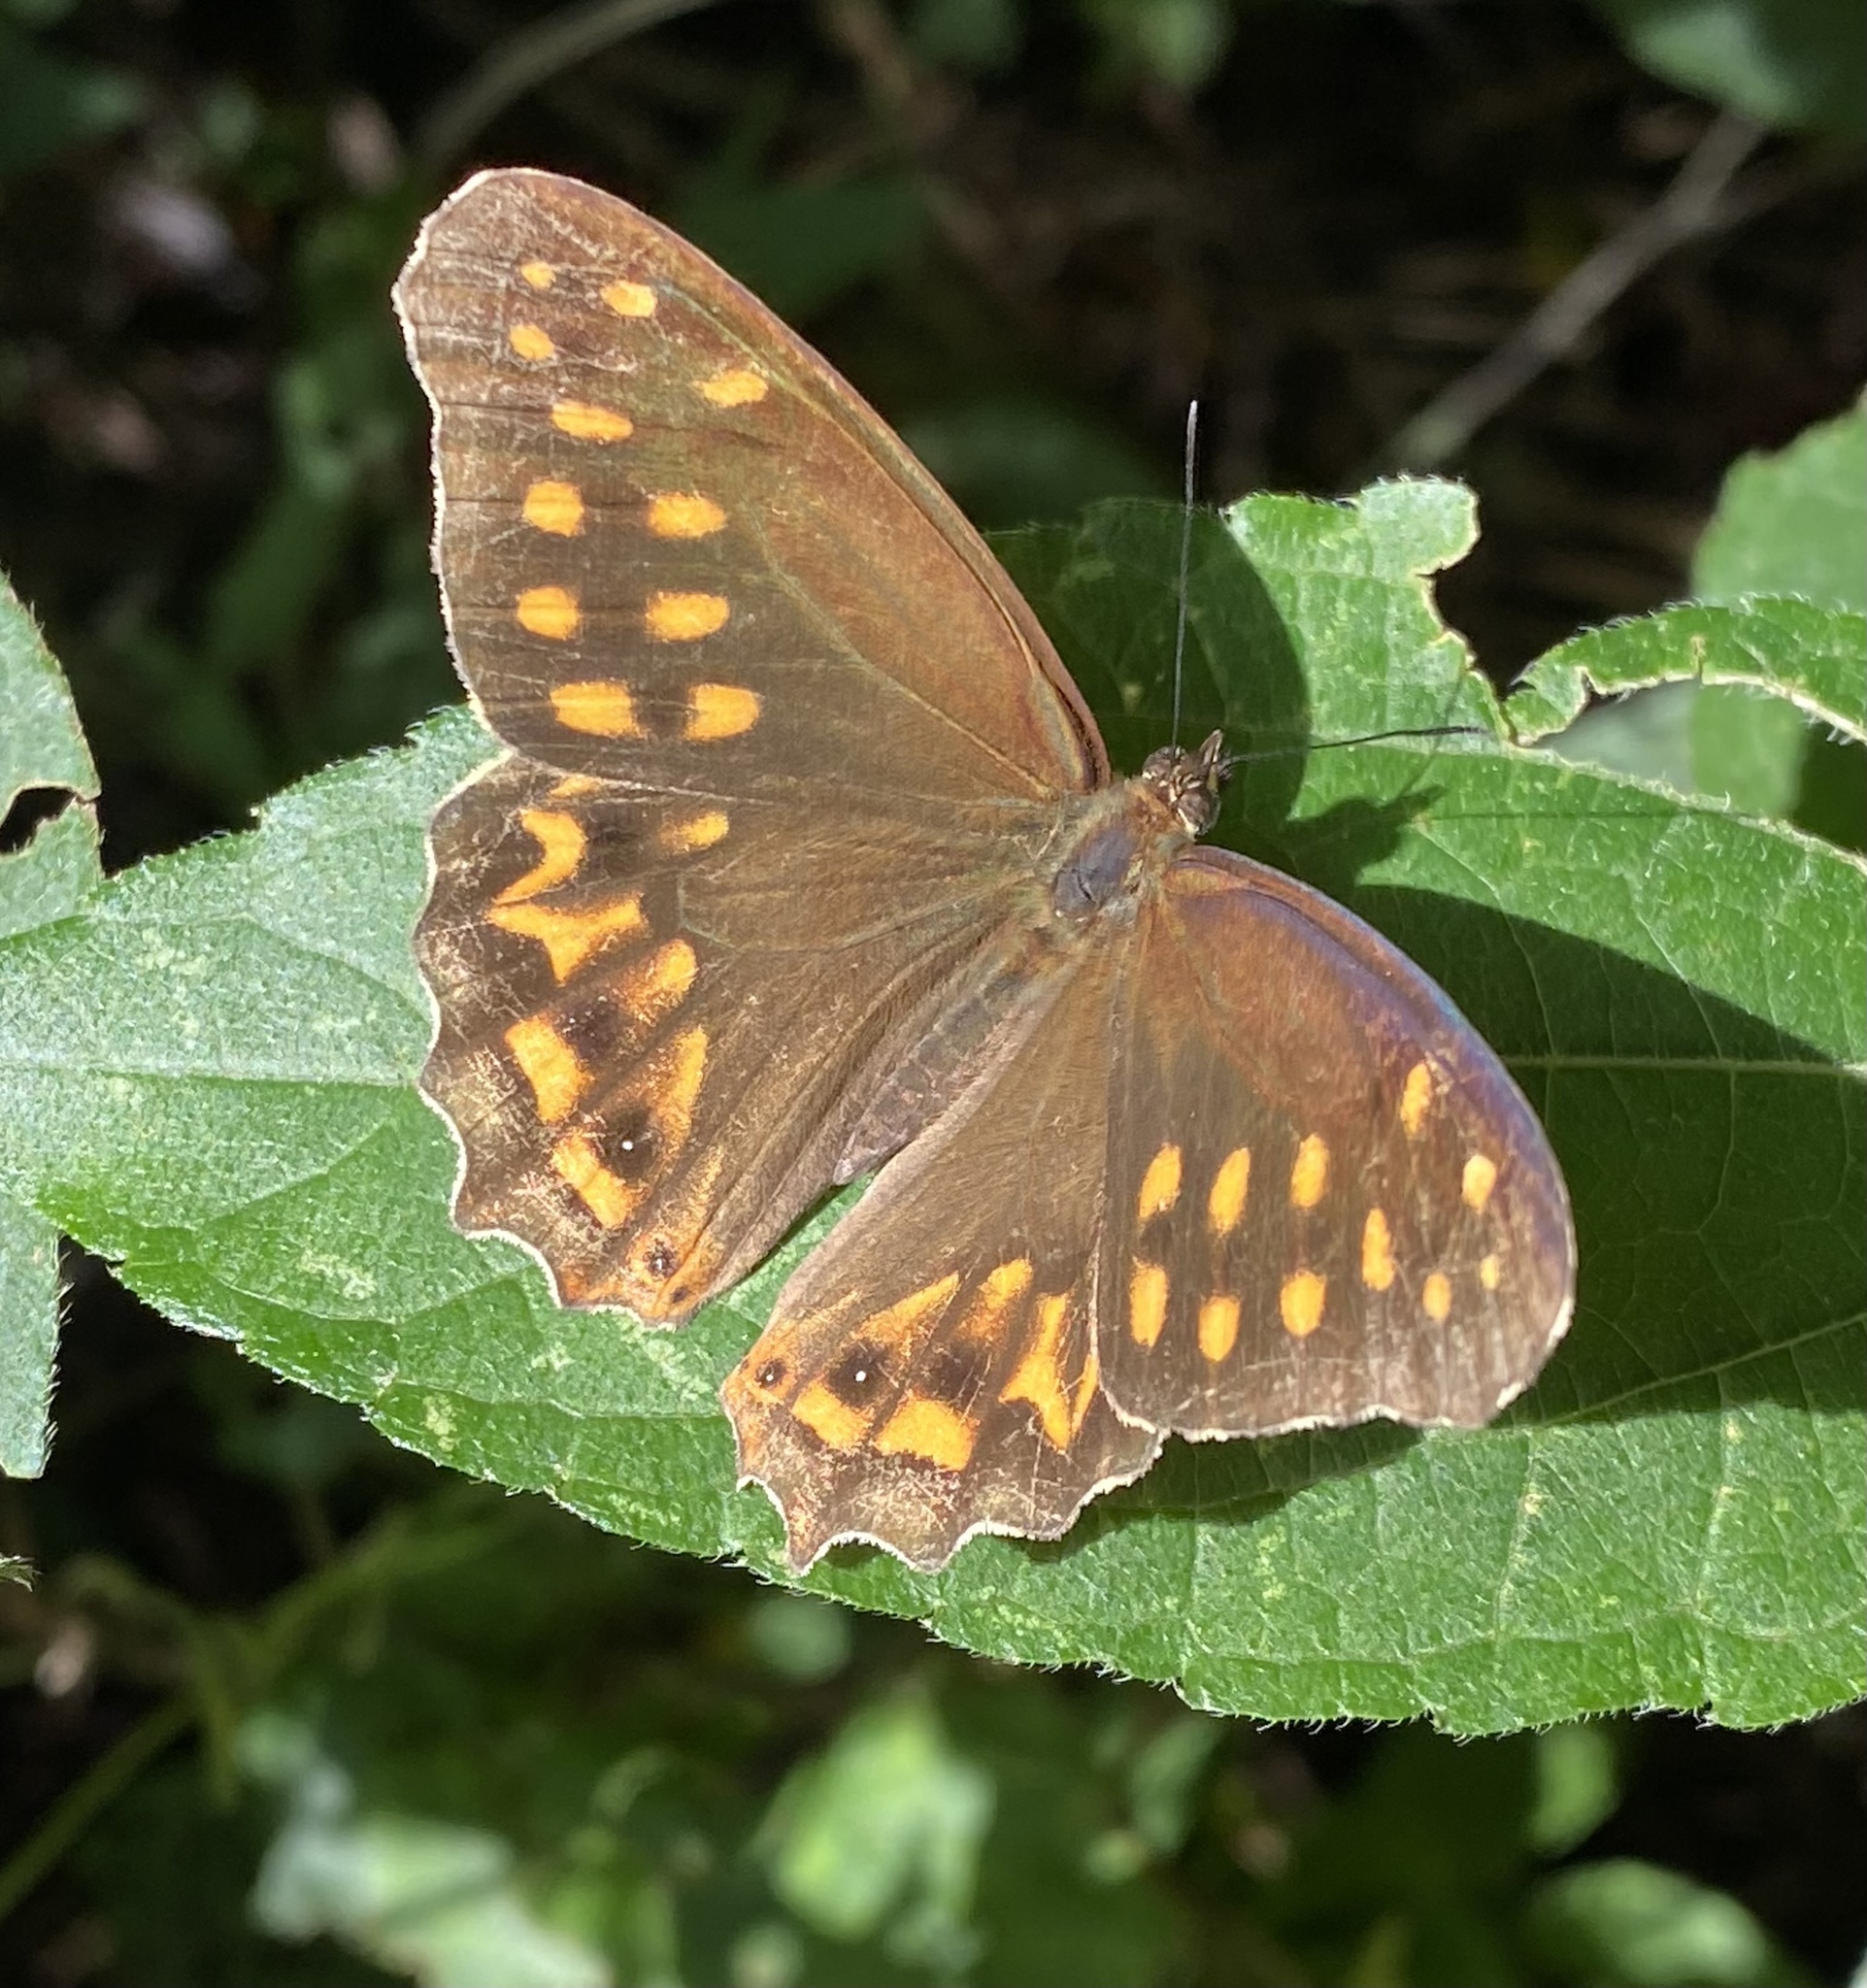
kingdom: Animalia
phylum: Arthropoda
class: Insecta
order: Lepidoptera
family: Nymphalidae
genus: Oxeoschistus
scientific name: Oxeoschistus hilara
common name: Dot-banded satyr
